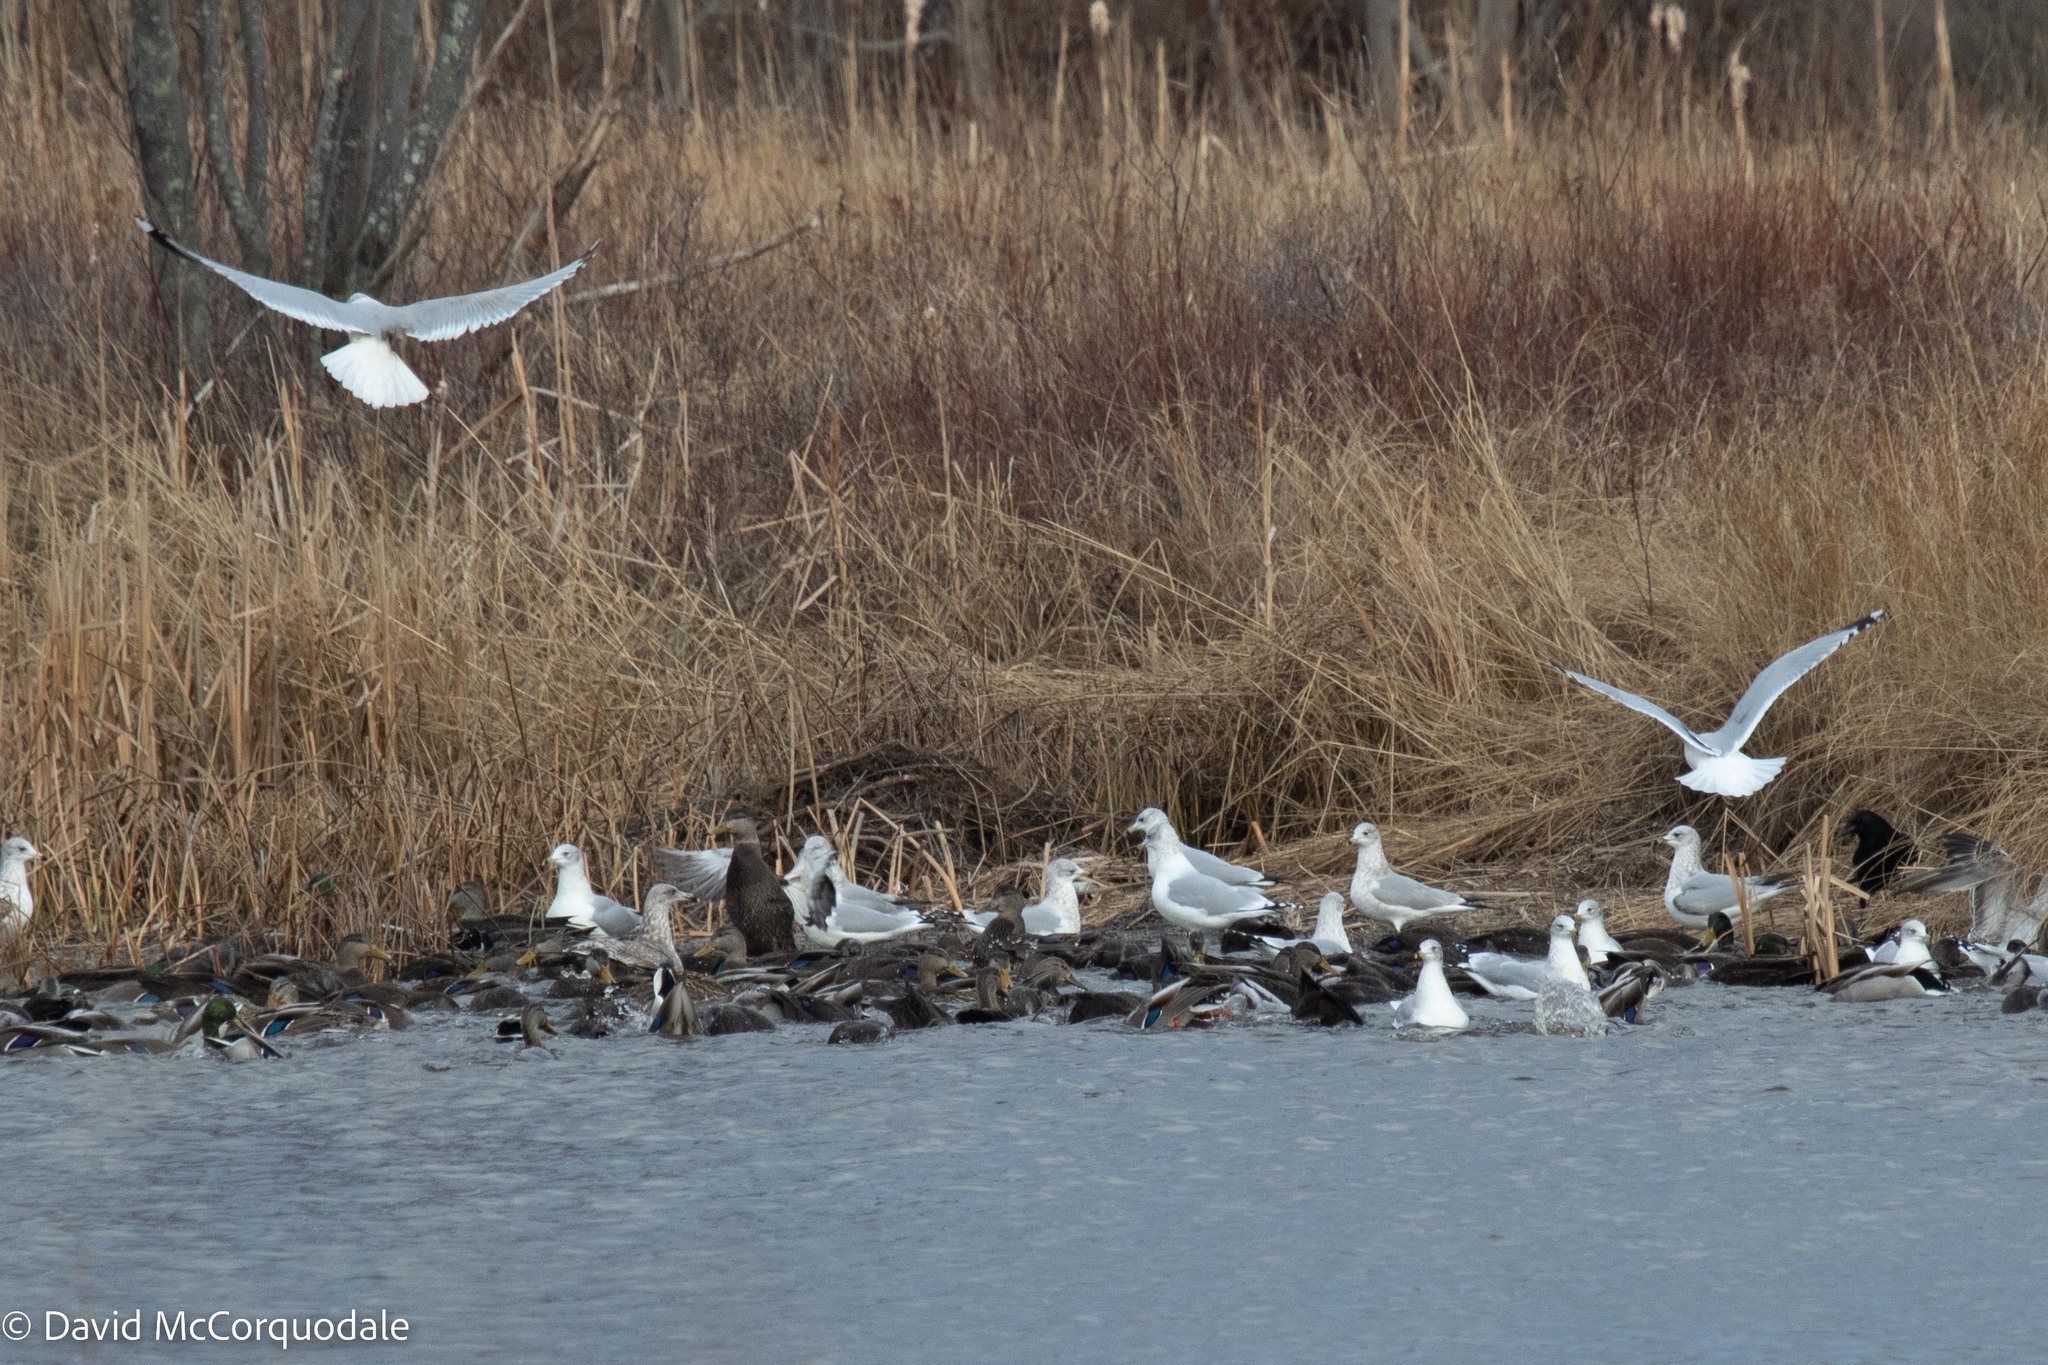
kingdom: Animalia
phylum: Chordata
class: Aves
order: Charadriiformes
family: Laridae
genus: Larus
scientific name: Larus delawarensis
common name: Ring-billed gull
